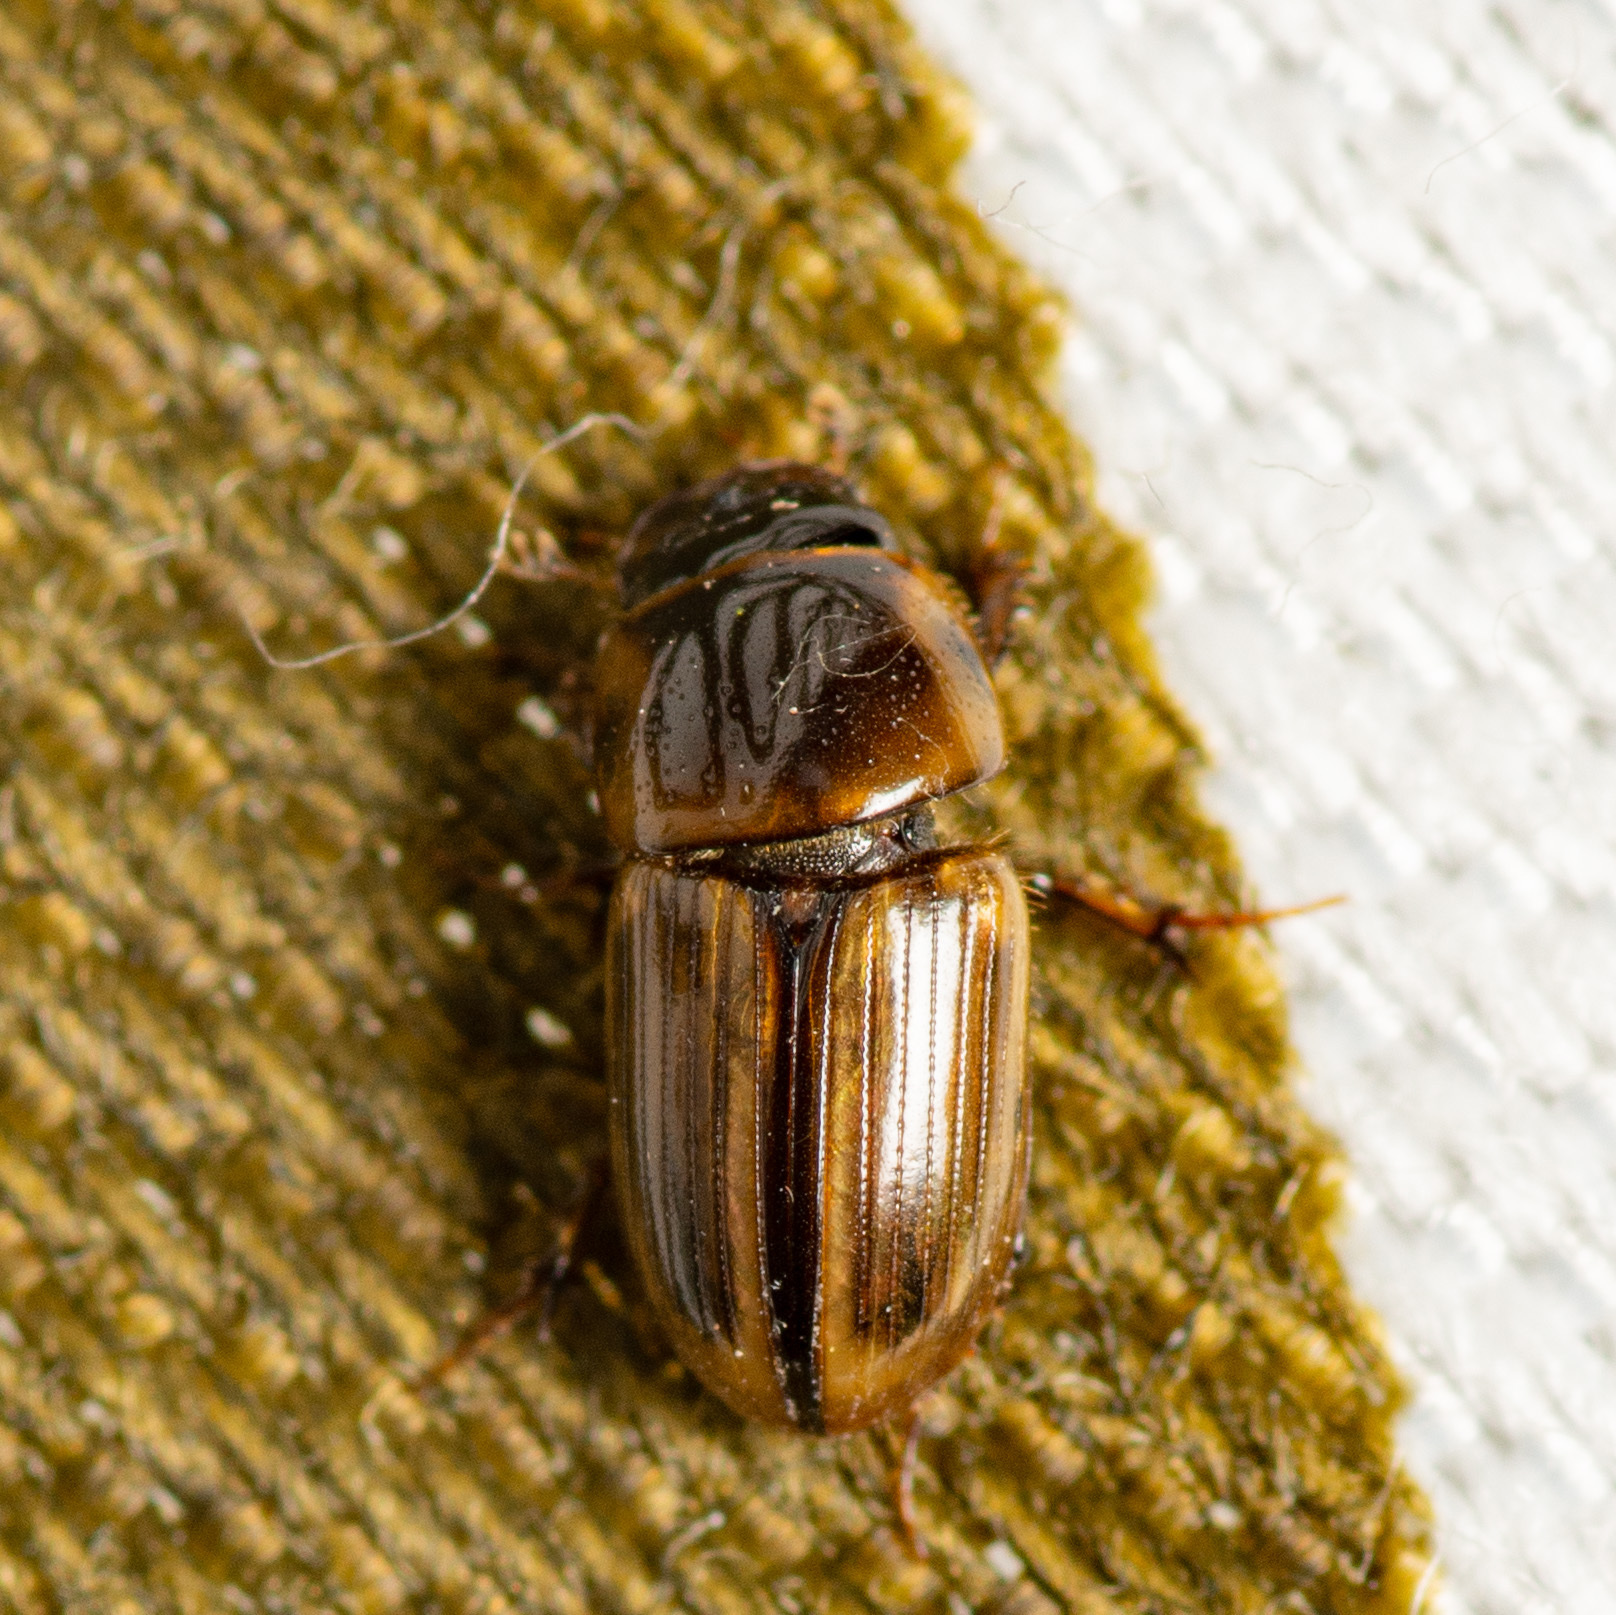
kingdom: Animalia
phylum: Arthropoda
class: Insecta
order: Coleoptera
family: Scarabaeidae
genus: Labarrus
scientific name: Labarrus lividus
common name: Scarab beetle
